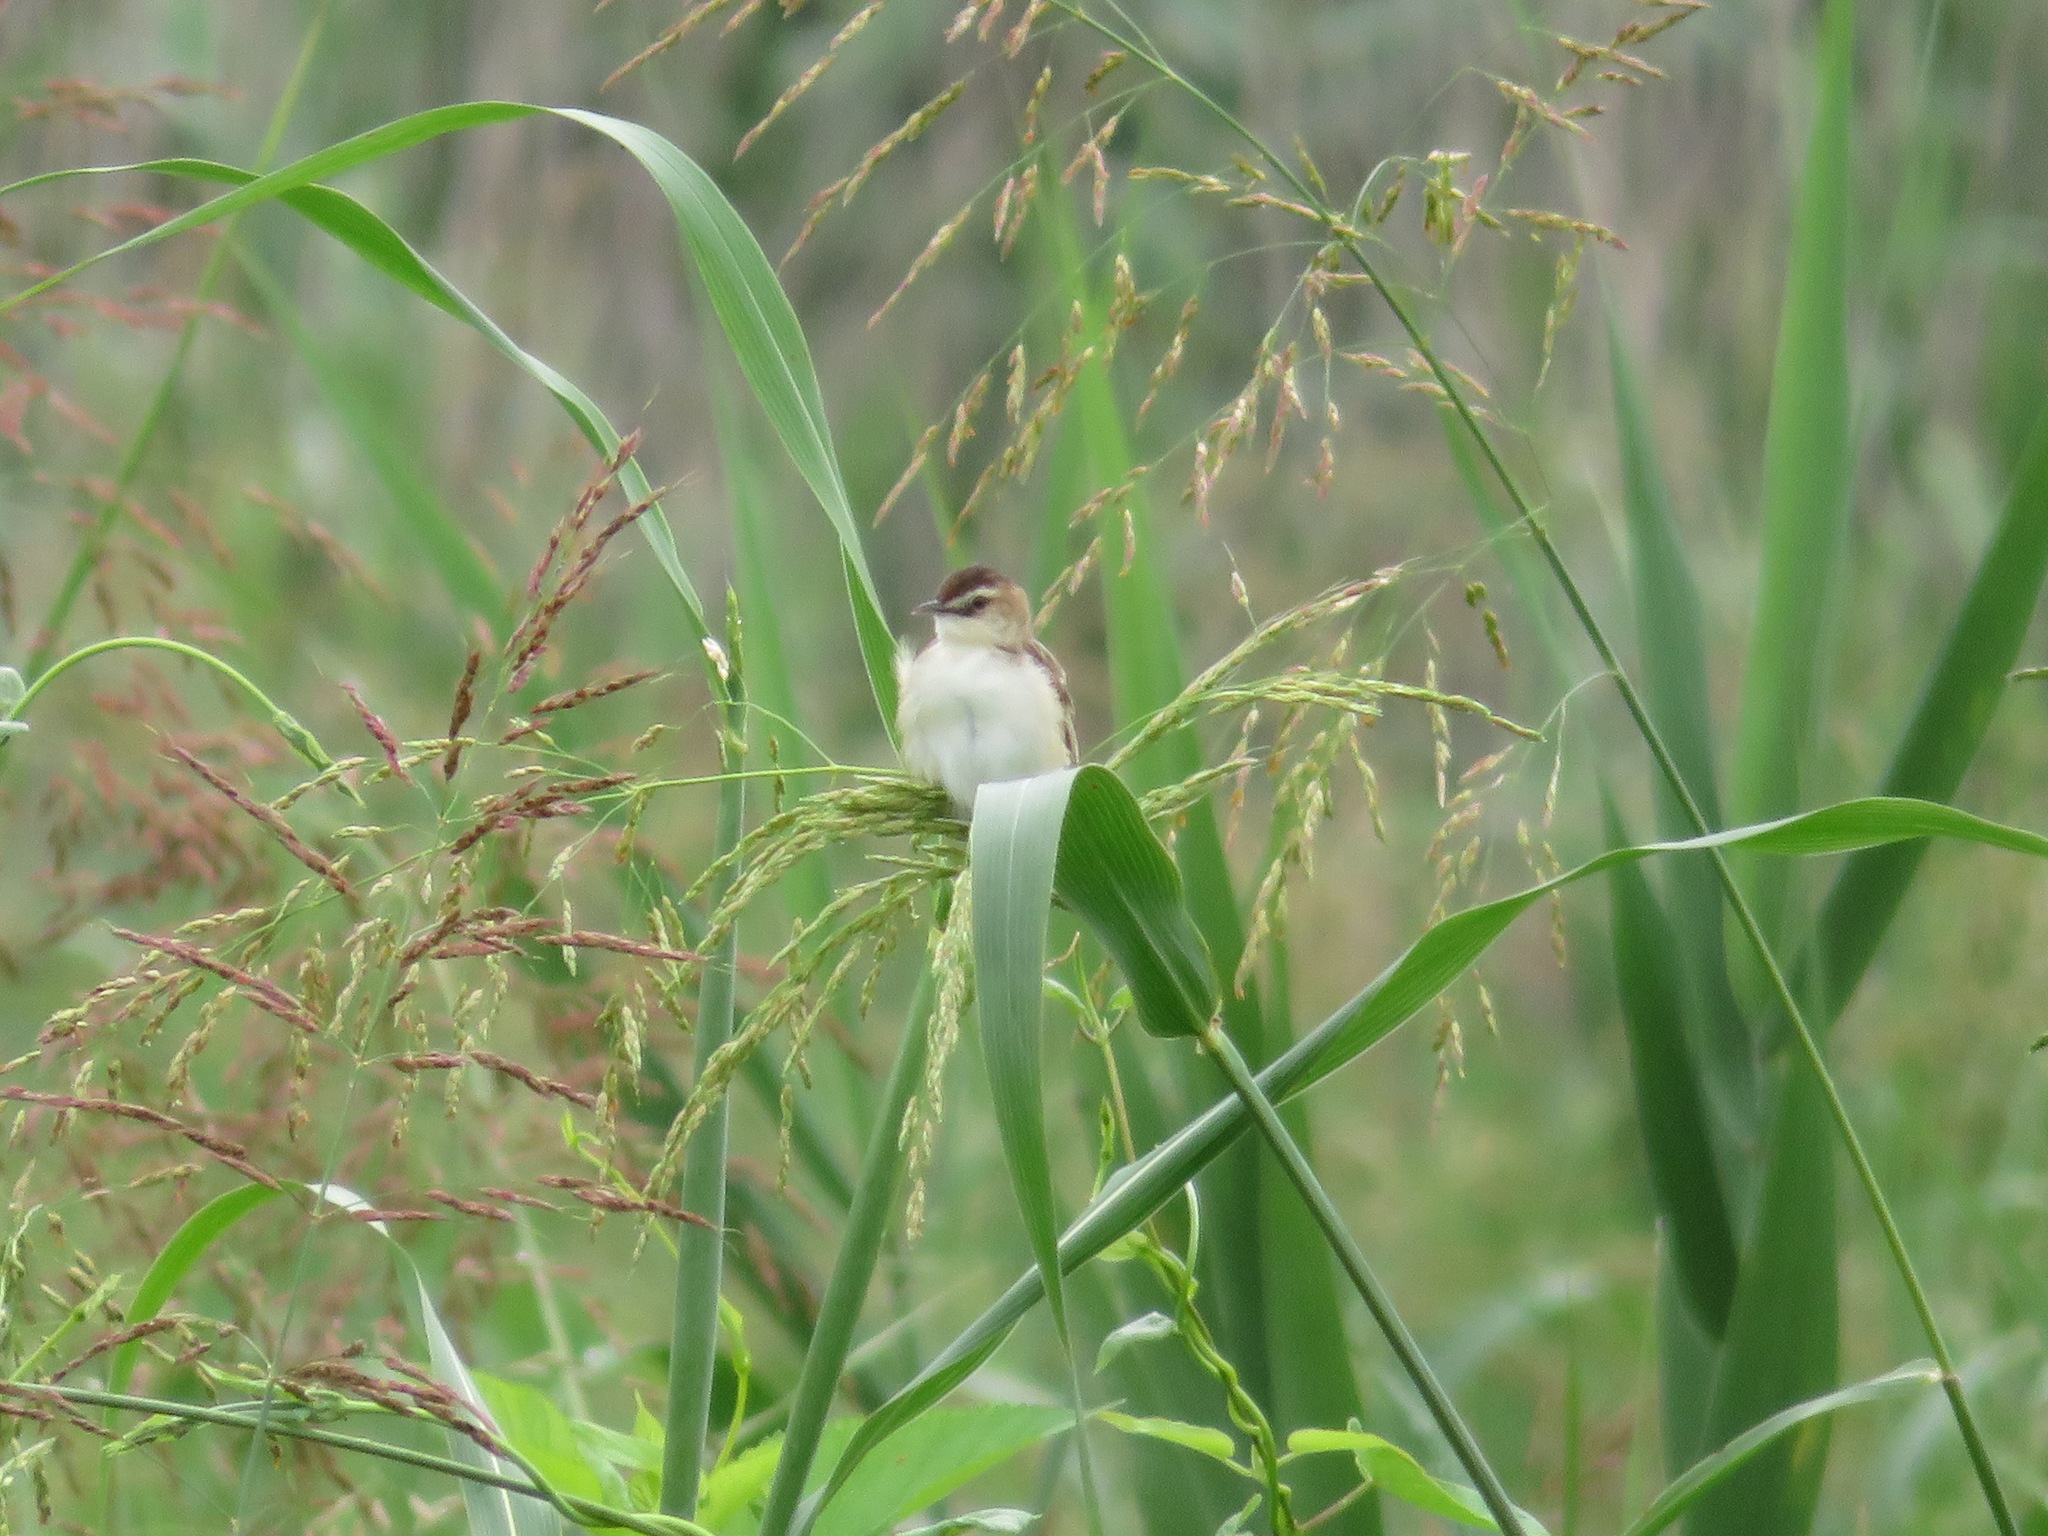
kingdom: Animalia
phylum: Chordata
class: Aves
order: Passeriformes
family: Cisticolidae
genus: Cisticola
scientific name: Cisticola juncidis
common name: Zitting cisticola
